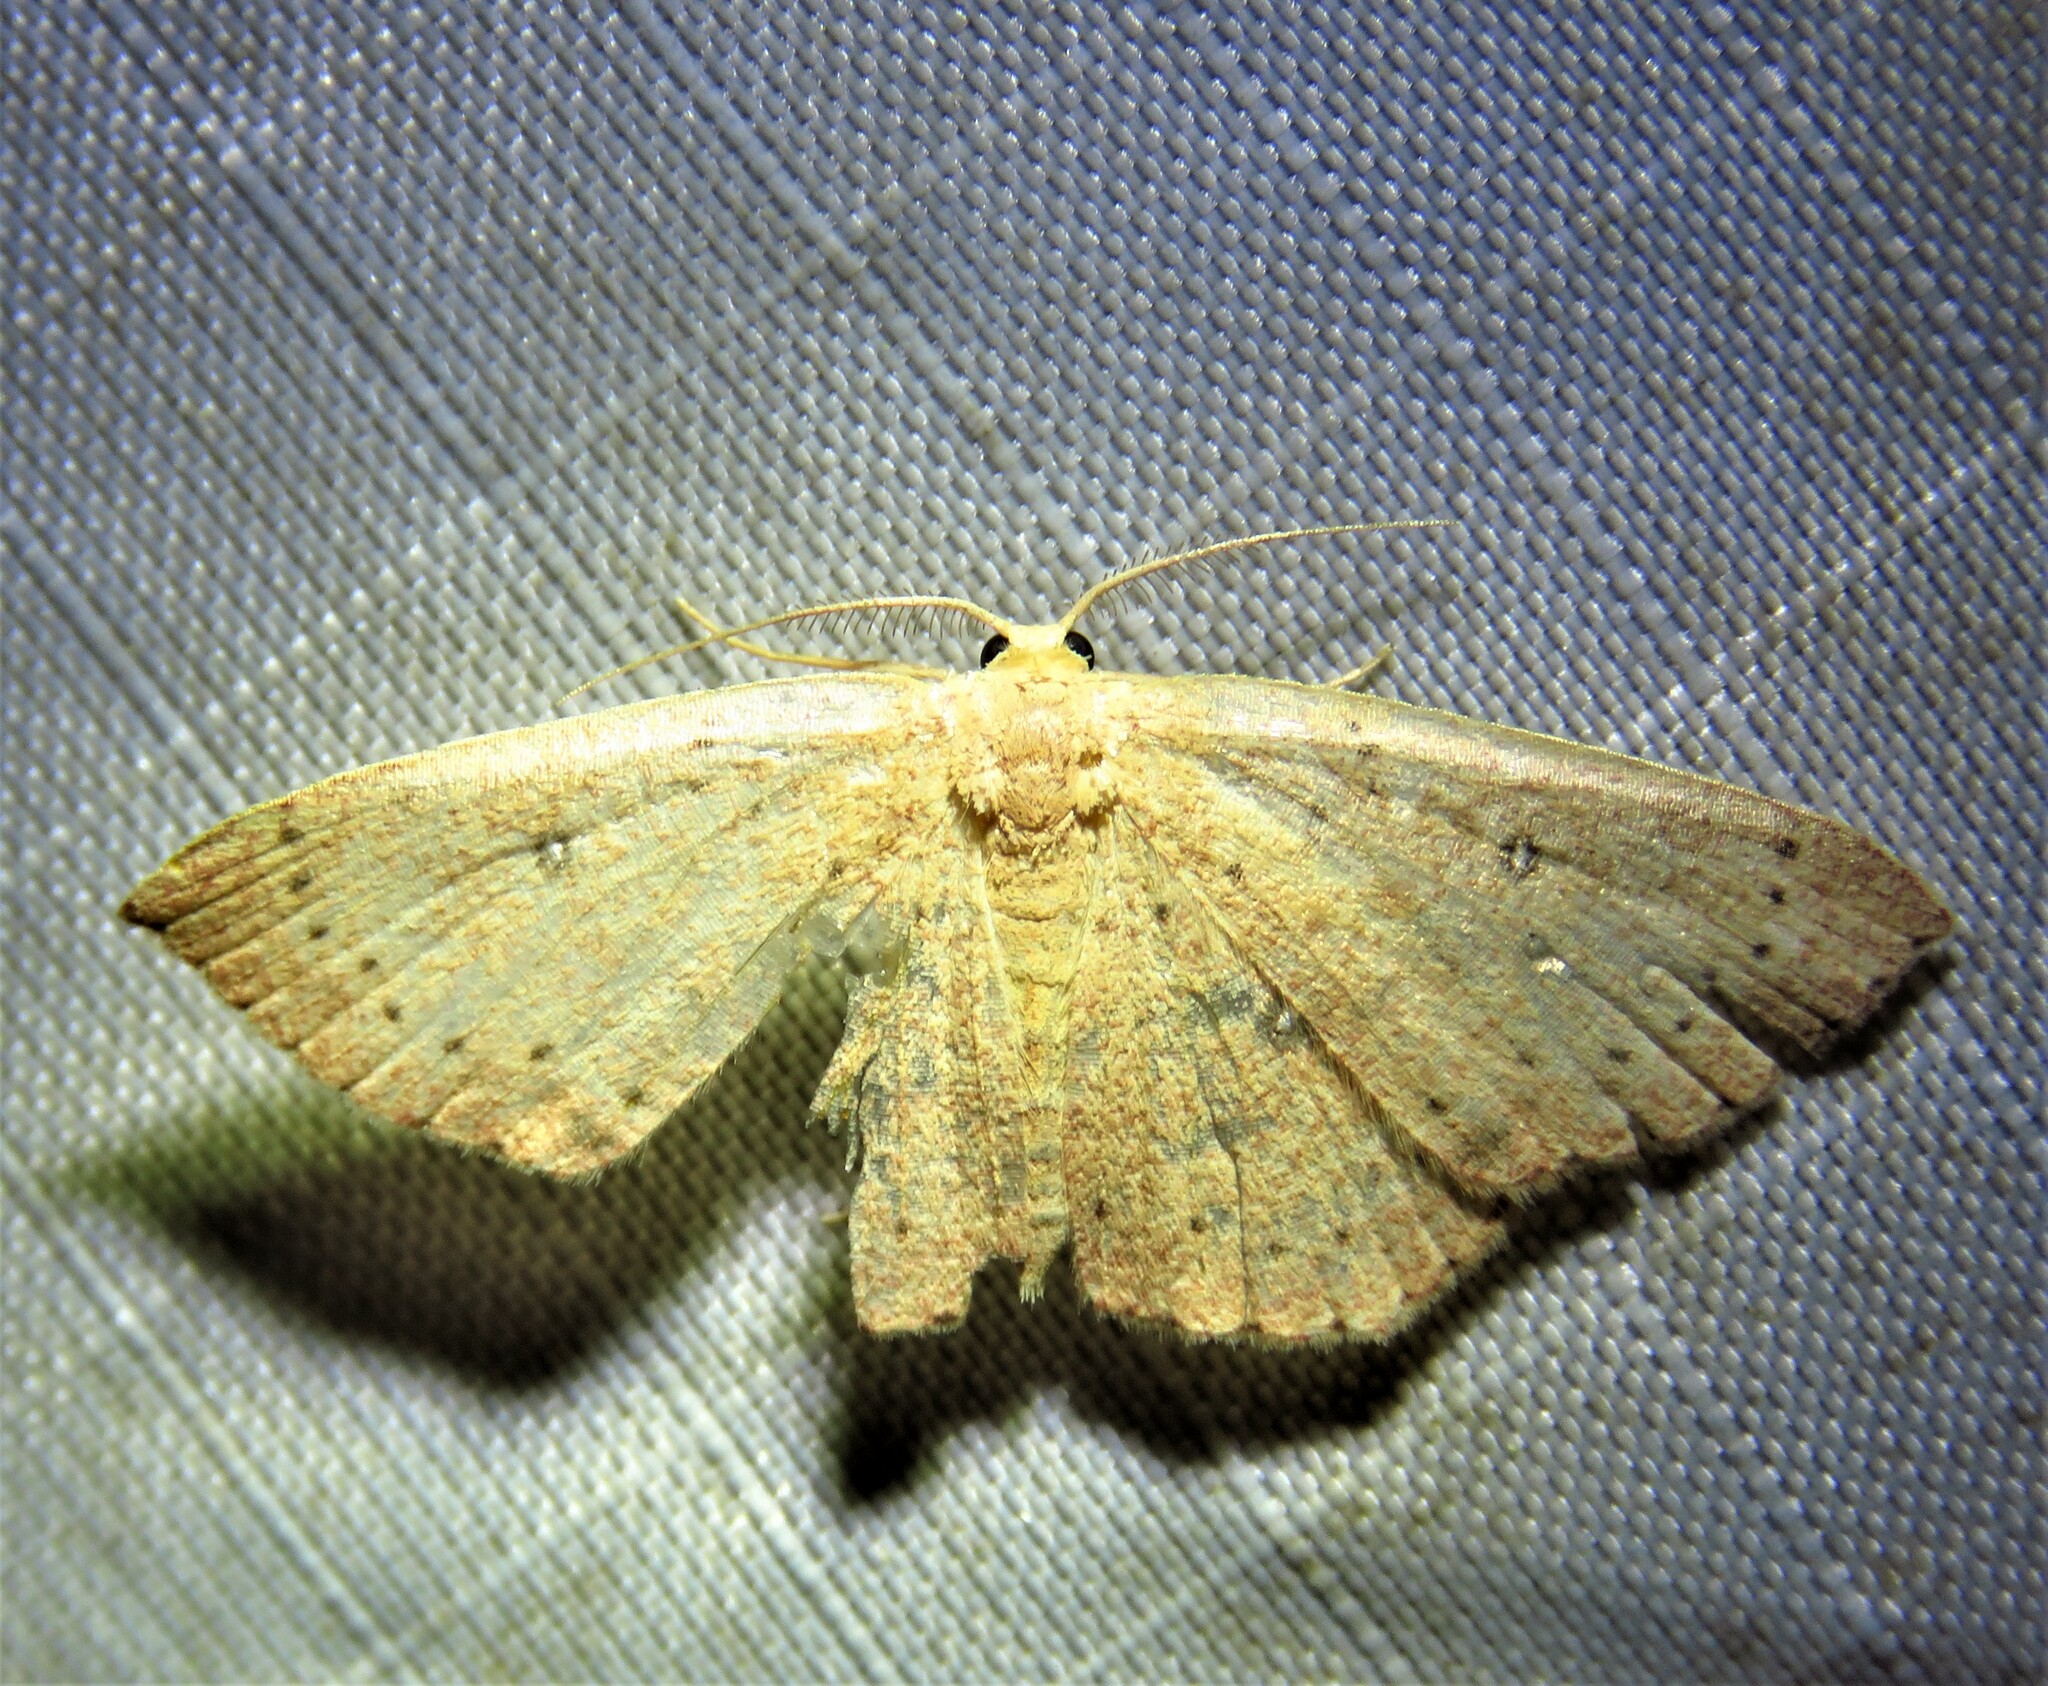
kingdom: Animalia
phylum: Arthropoda
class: Insecta
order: Lepidoptera
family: Geometridae
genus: Cyclophora
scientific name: Cyclophora packardi
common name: Packard's wave
